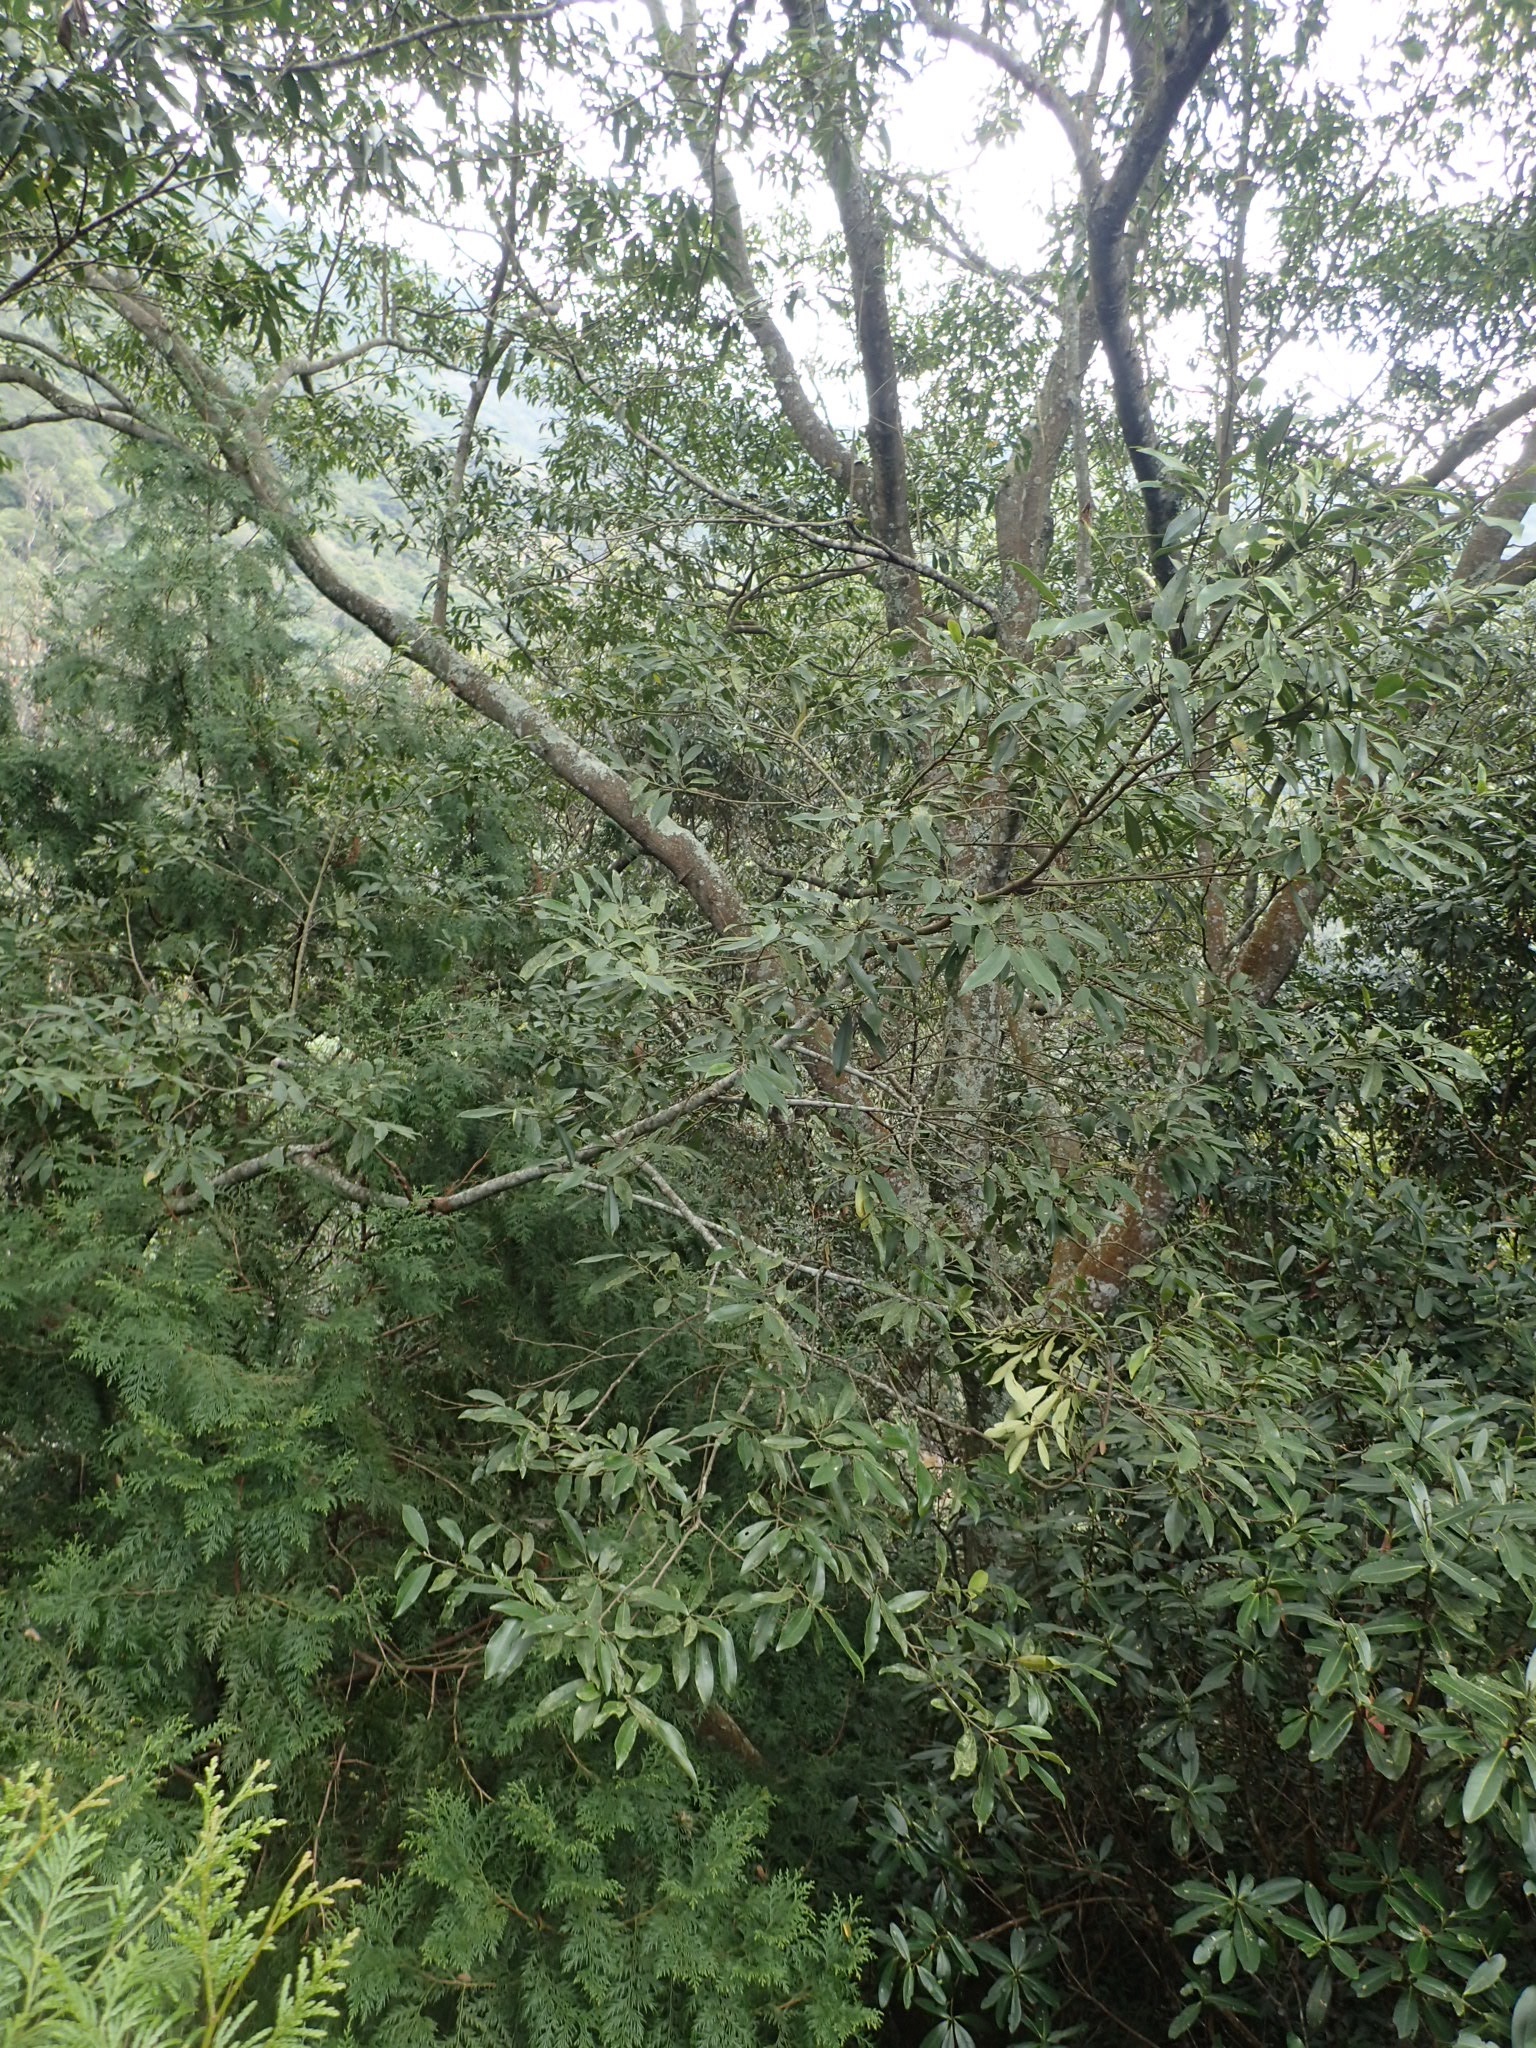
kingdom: Plantae
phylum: Tracheophyta
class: Magnoliopsida
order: Magnoliales
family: Magnoliaceae
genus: Magnolia
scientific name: Magnolia compressa
